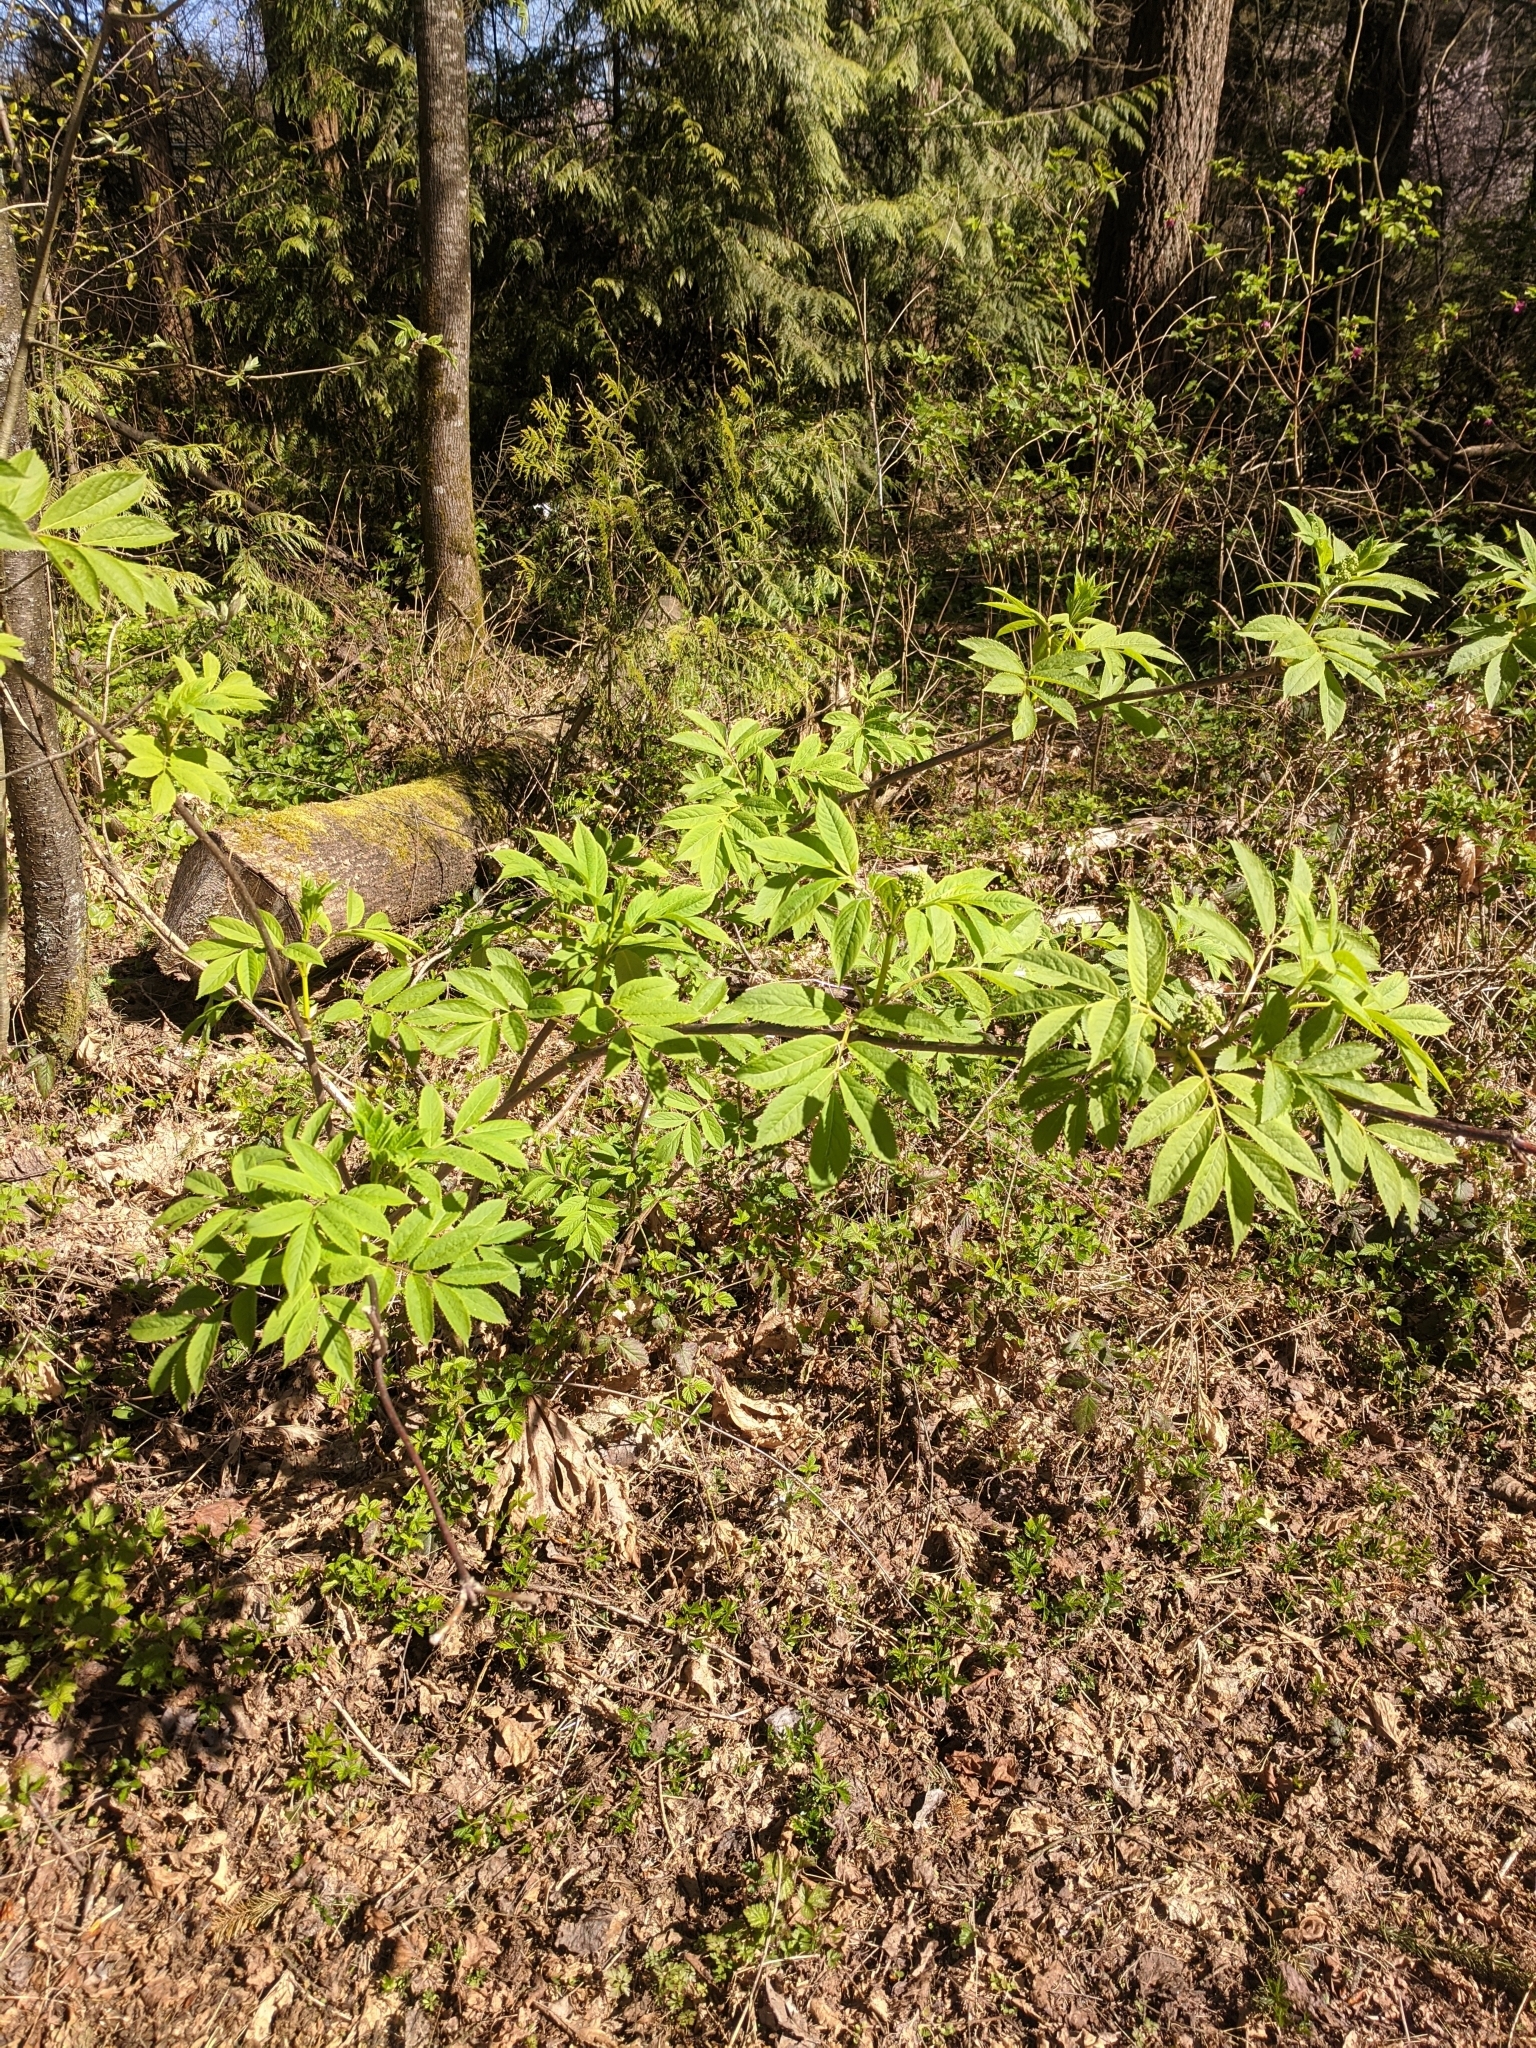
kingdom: Plantae
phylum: Tracheophyta
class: Magnoliopsida
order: Dipsacales
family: Viburnaceae
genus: Sambucus
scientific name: Sambucus racemosa
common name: Red-berried elder
